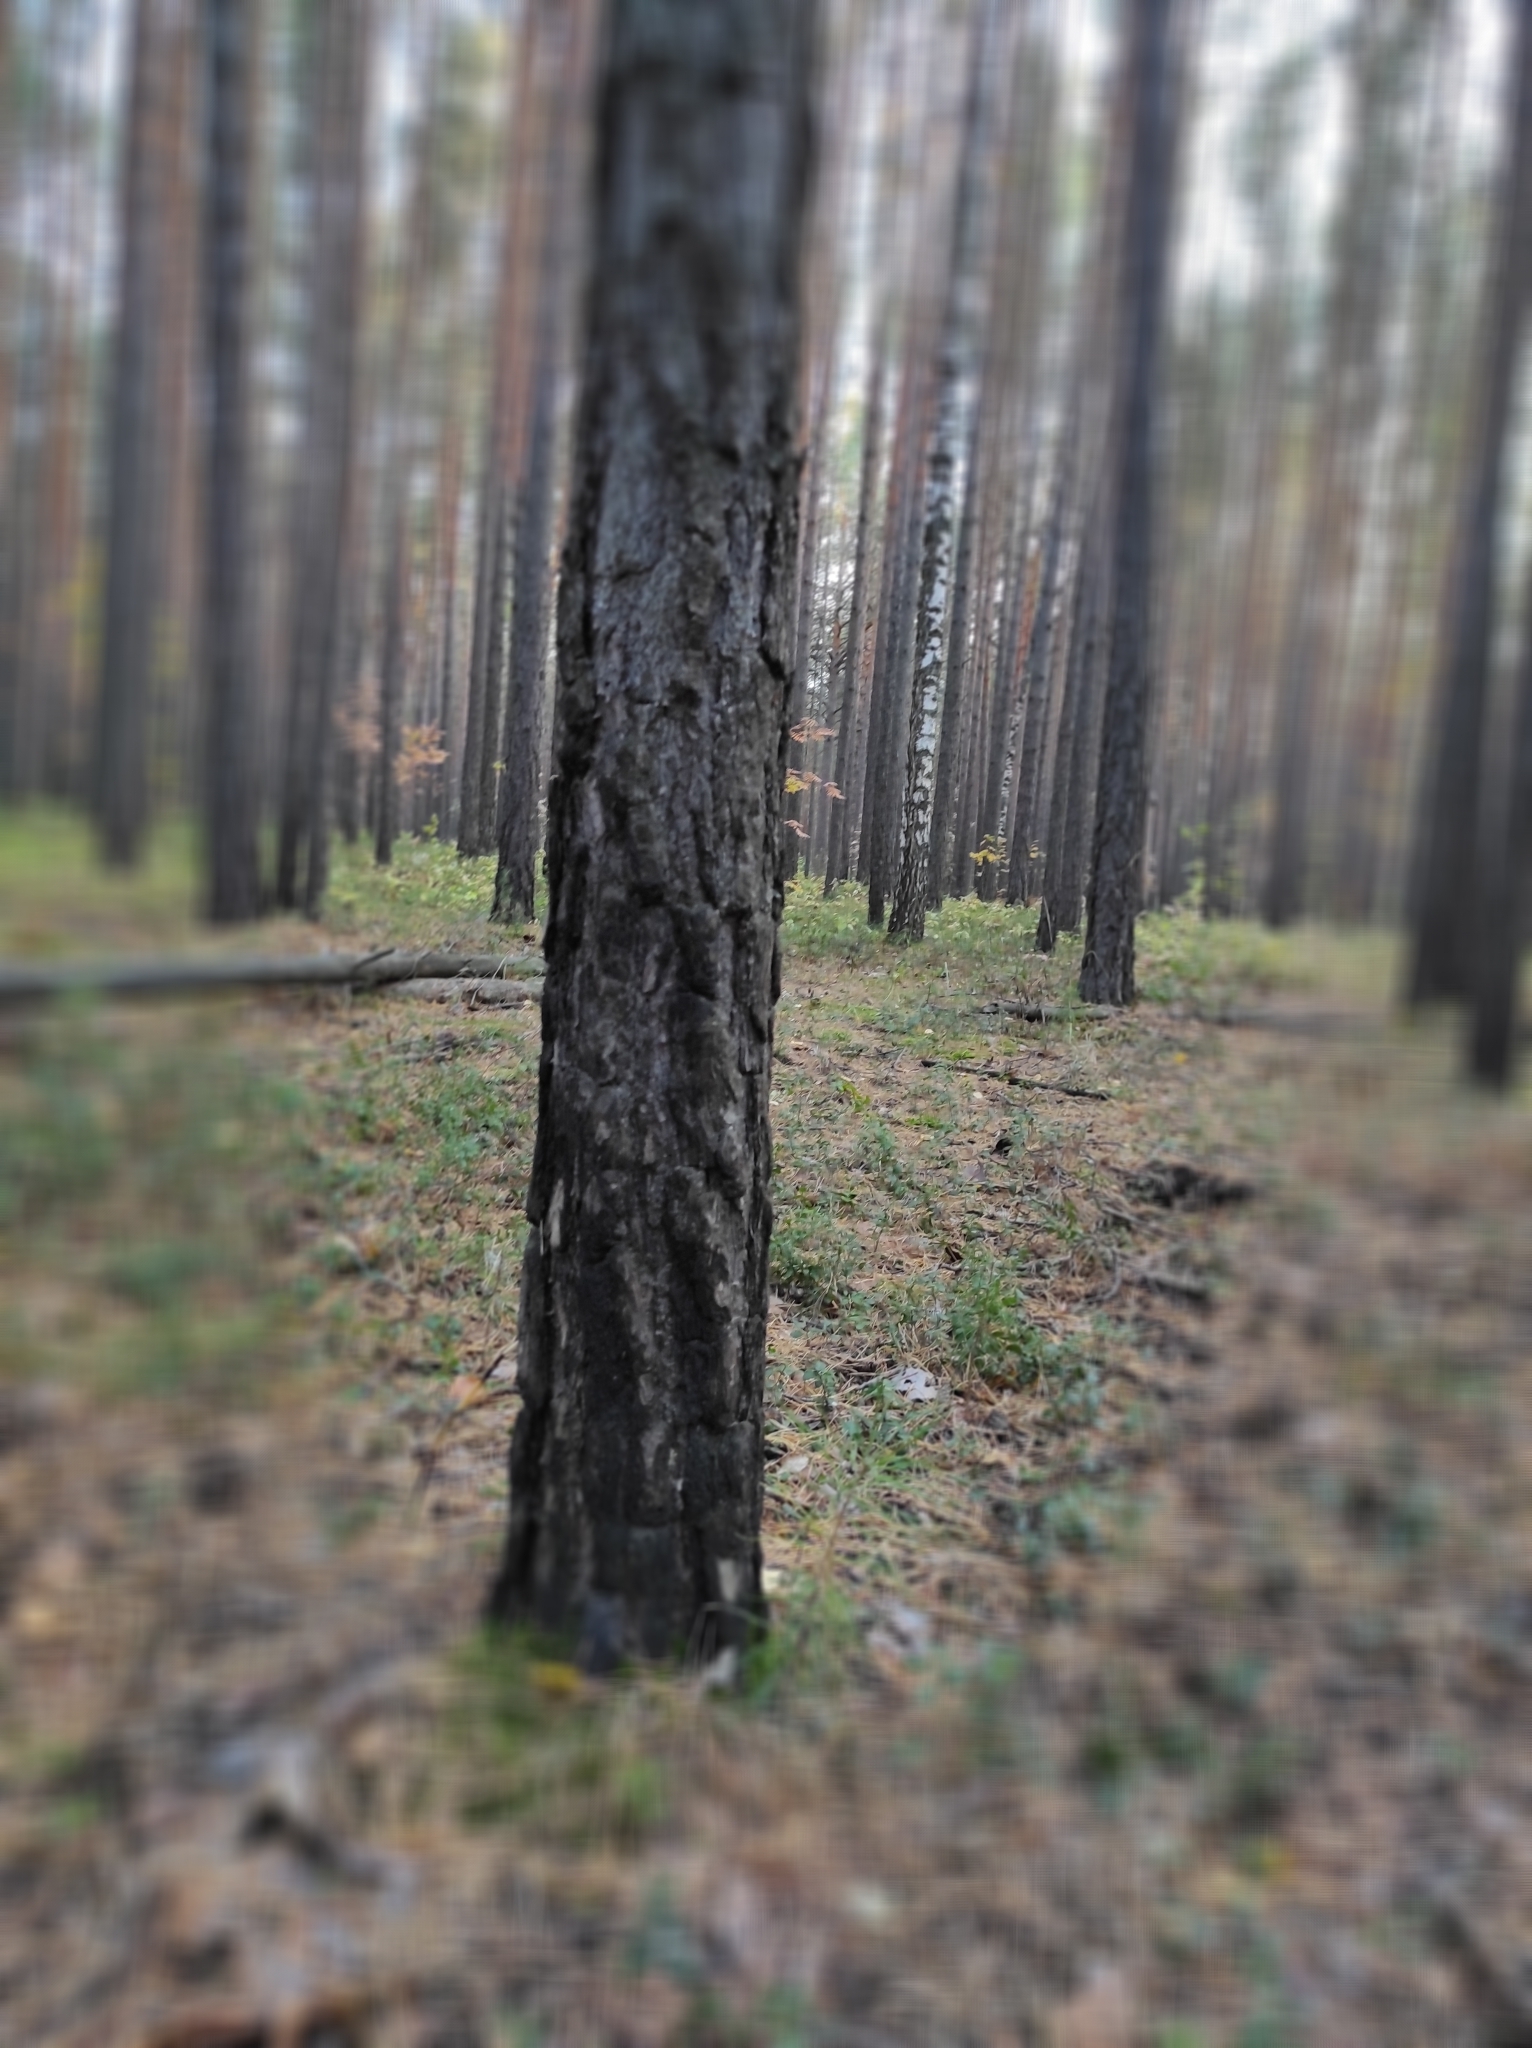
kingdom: Plantae
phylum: Tracheophyta
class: Pinopsida
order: Pinales
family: Pinaceae
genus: Pinus
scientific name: Pinus sylvestris
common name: Scots pine
